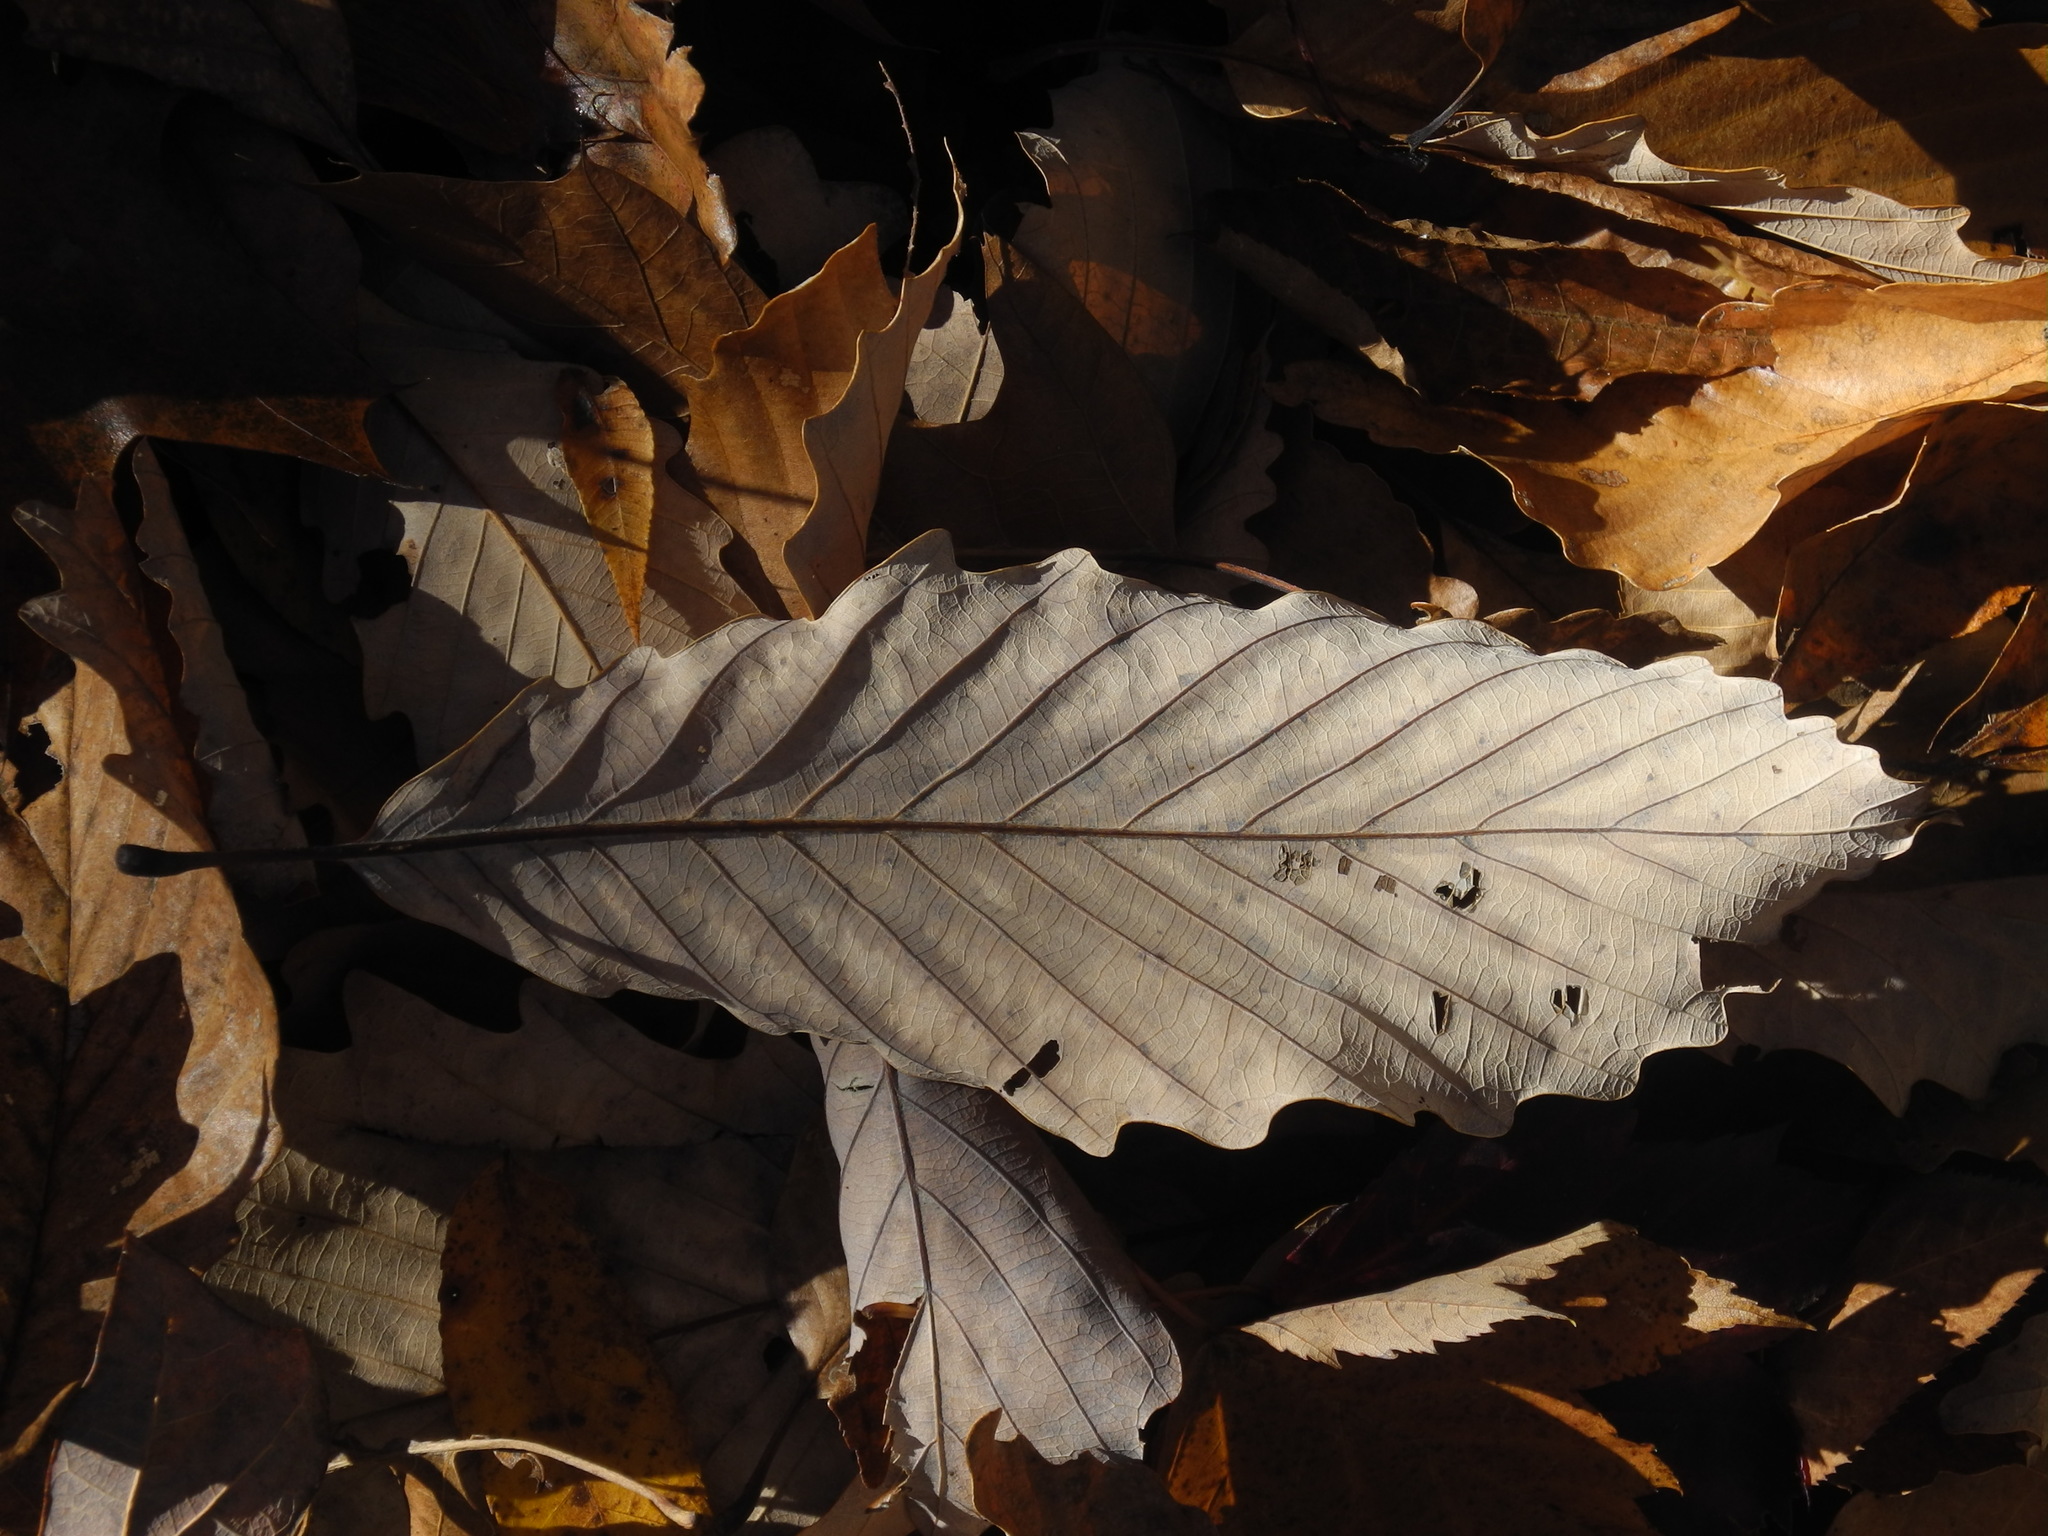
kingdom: Plantae
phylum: Tracheophyta
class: Magnoliopsida
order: Fagales
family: Fagaceae
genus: Quercus
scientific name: Quercus montana
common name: Chestnut oak
